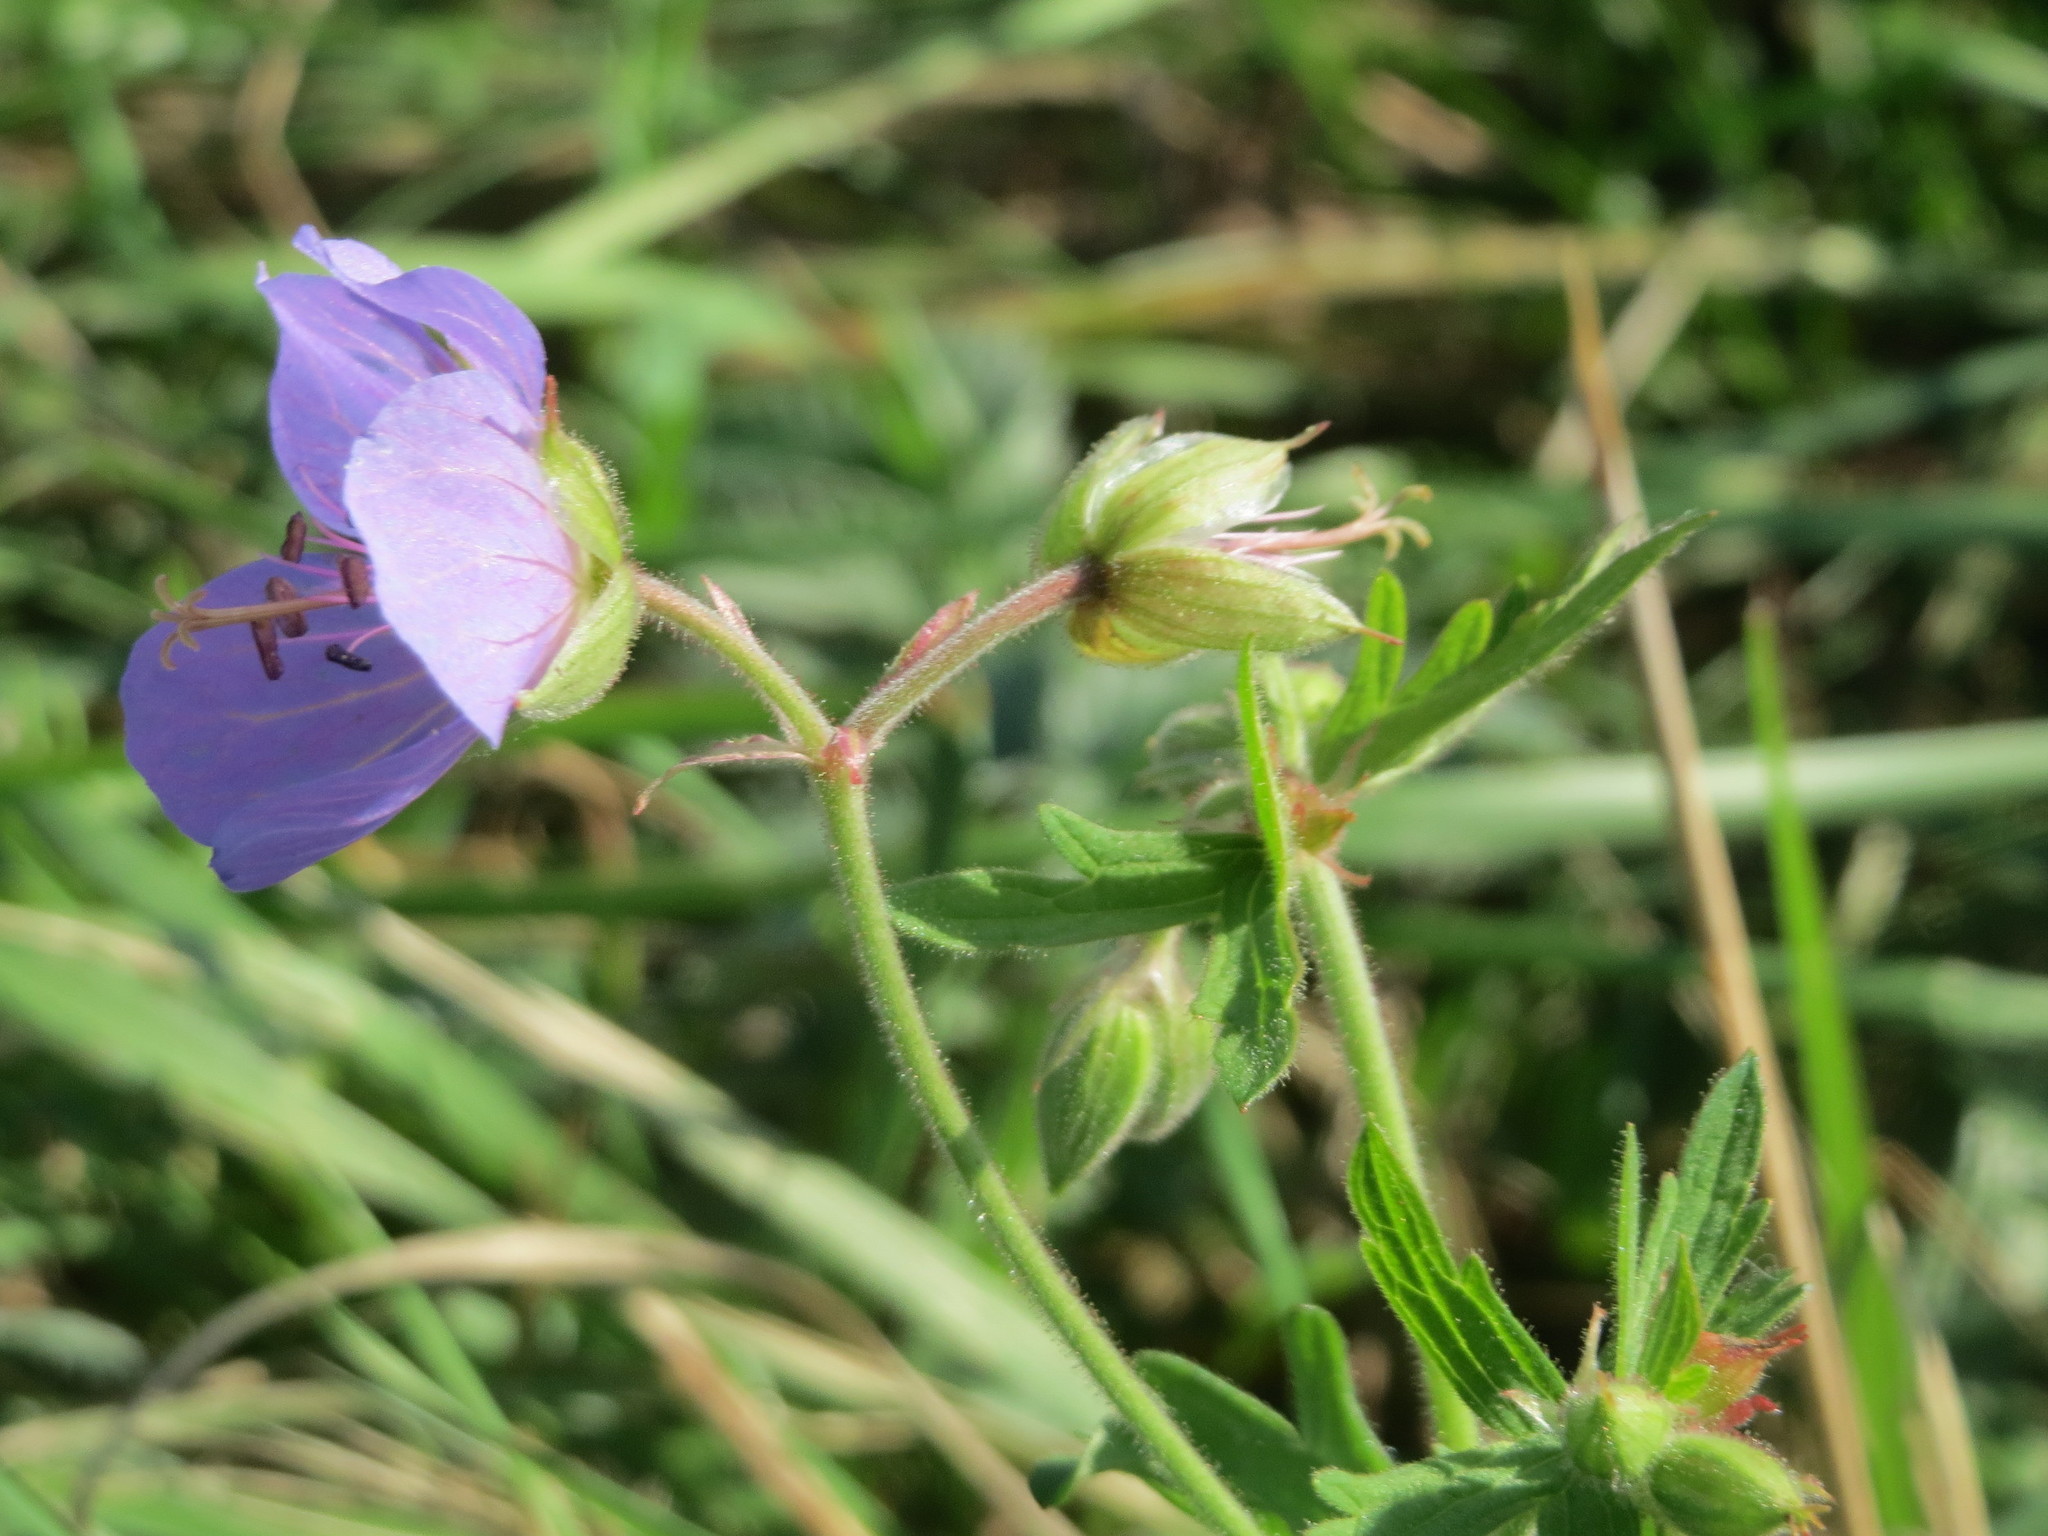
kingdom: Plantae
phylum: Tracheophyta
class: Magnoliopsida
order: Geraniales
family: Geraniaceae
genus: Geranium
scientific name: Geranium pratense
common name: Meadow crane's-bill
